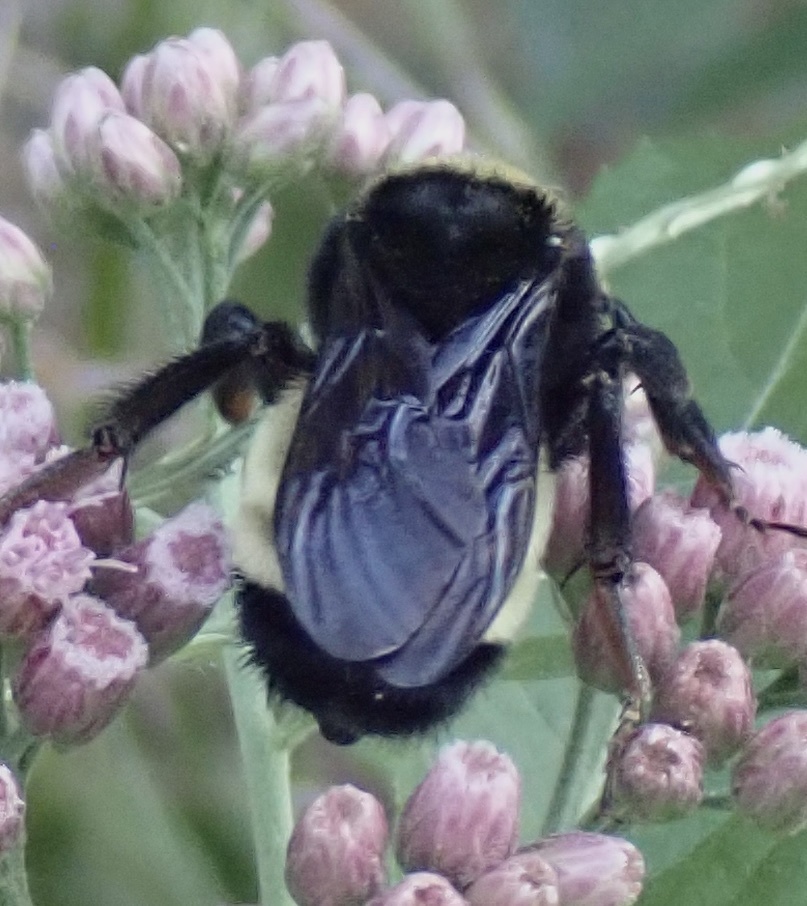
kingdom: Animalia
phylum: Arthropoda
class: Insecta
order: Hymenoptera
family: Apidae
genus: Bombus
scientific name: Bombus pensylvanicus
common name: Bumble bee
